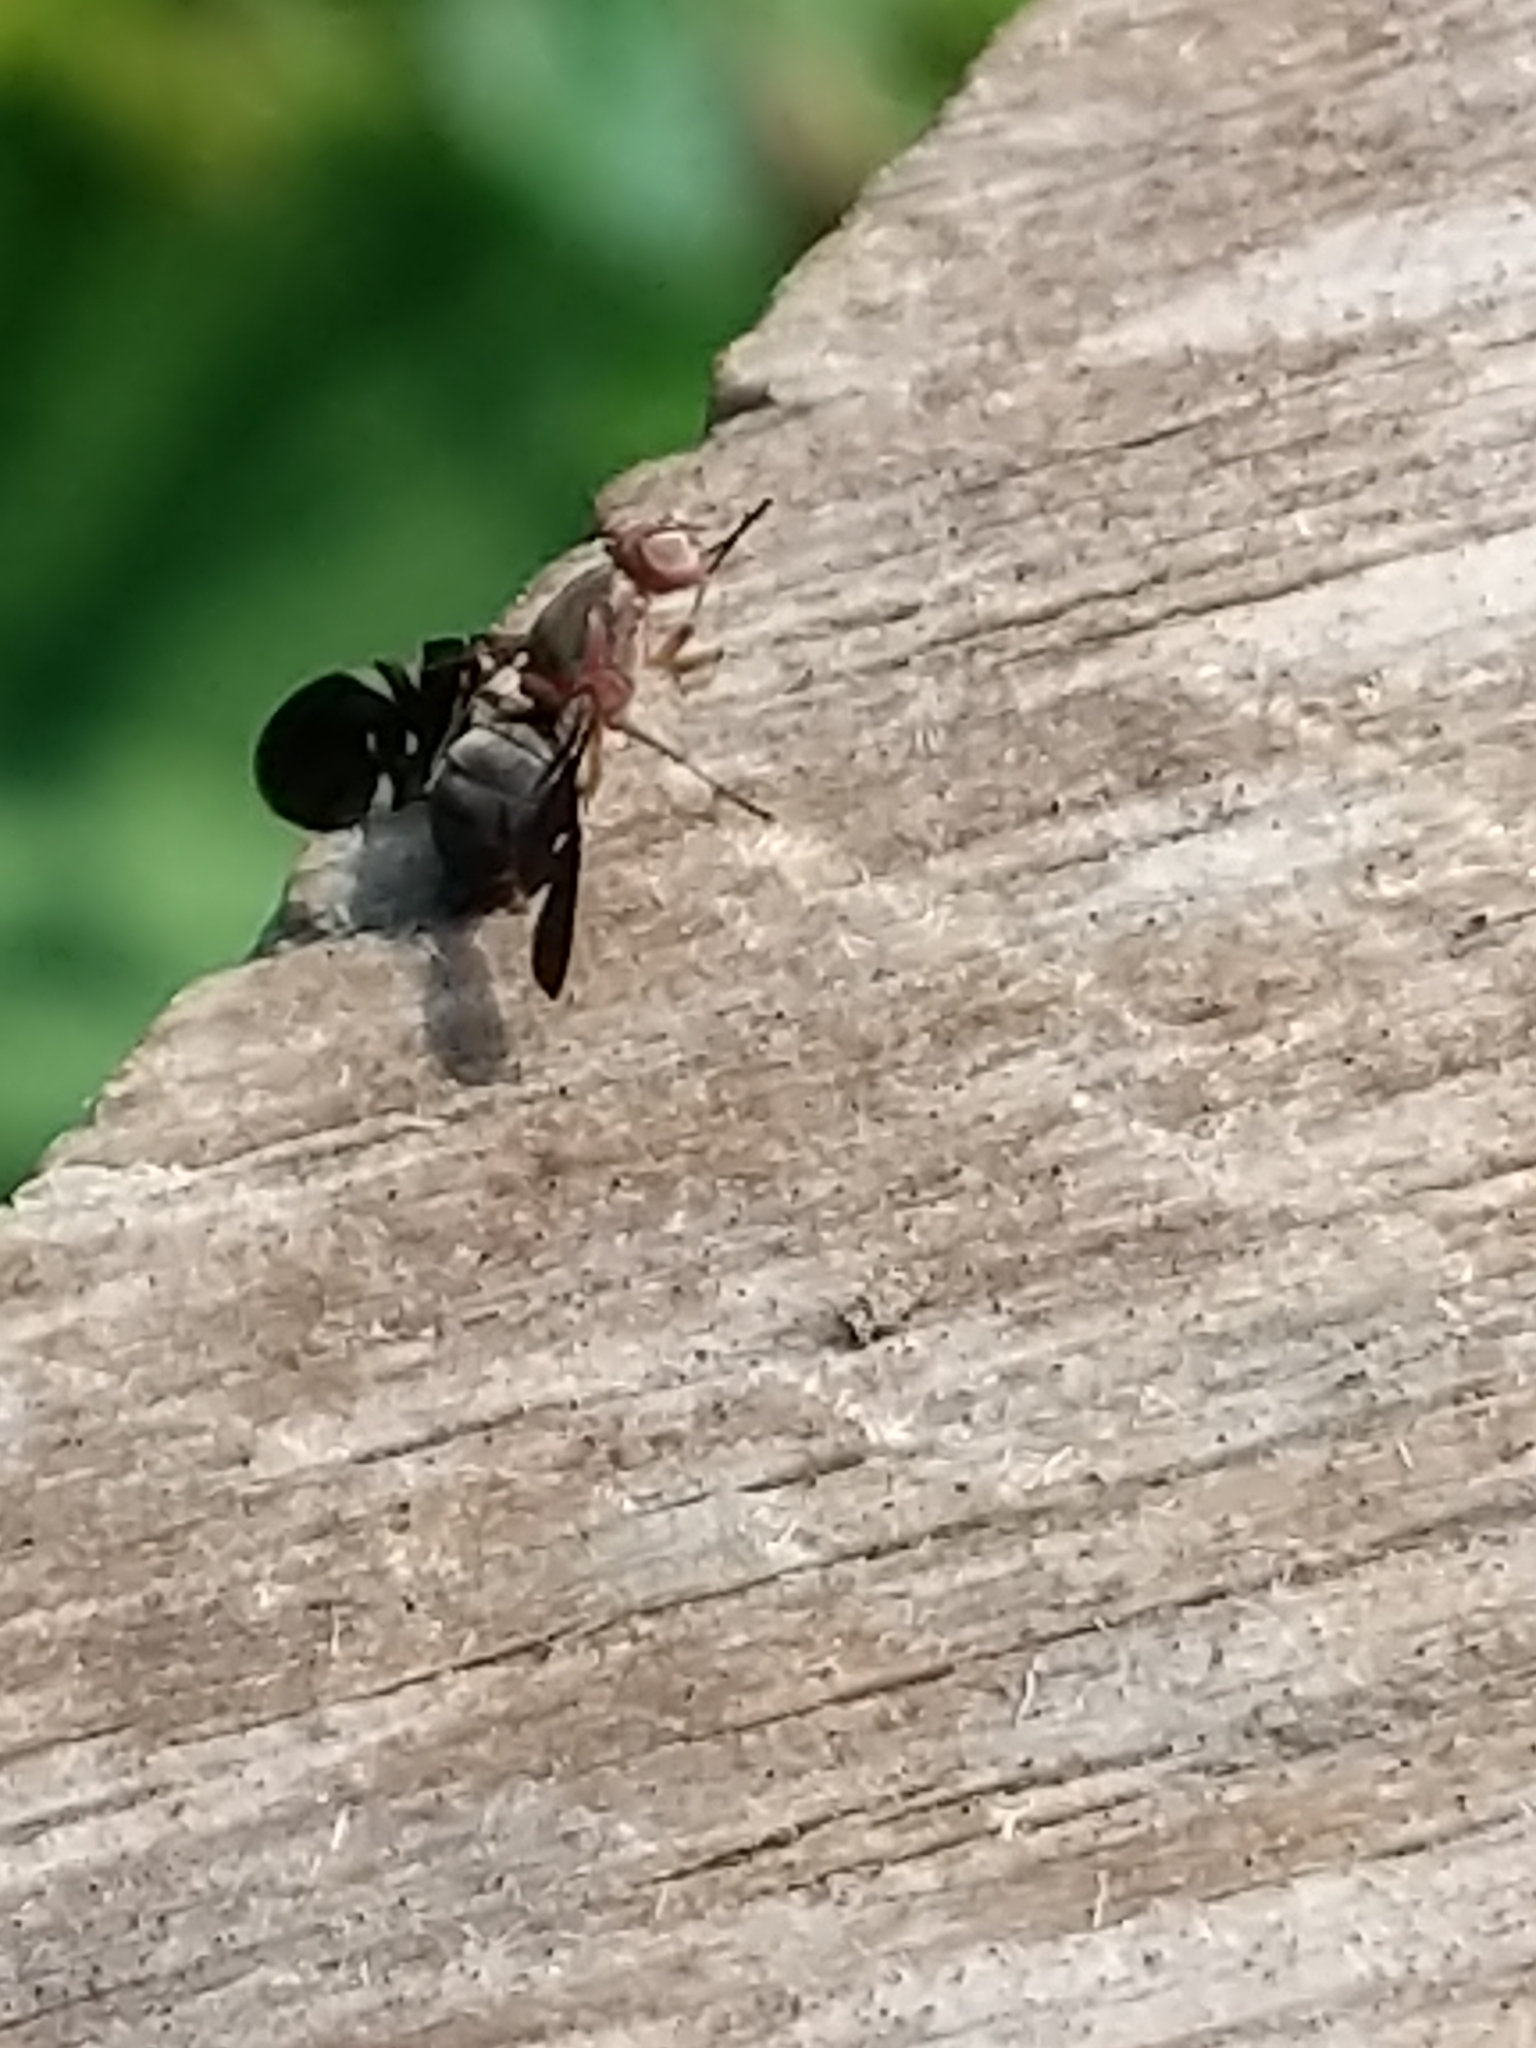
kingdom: Animalia
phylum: Arthropoda
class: Insecta
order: Diptera
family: Ulidiidae
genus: Delphinia
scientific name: Delphinia picta
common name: Common picture-winged fly
